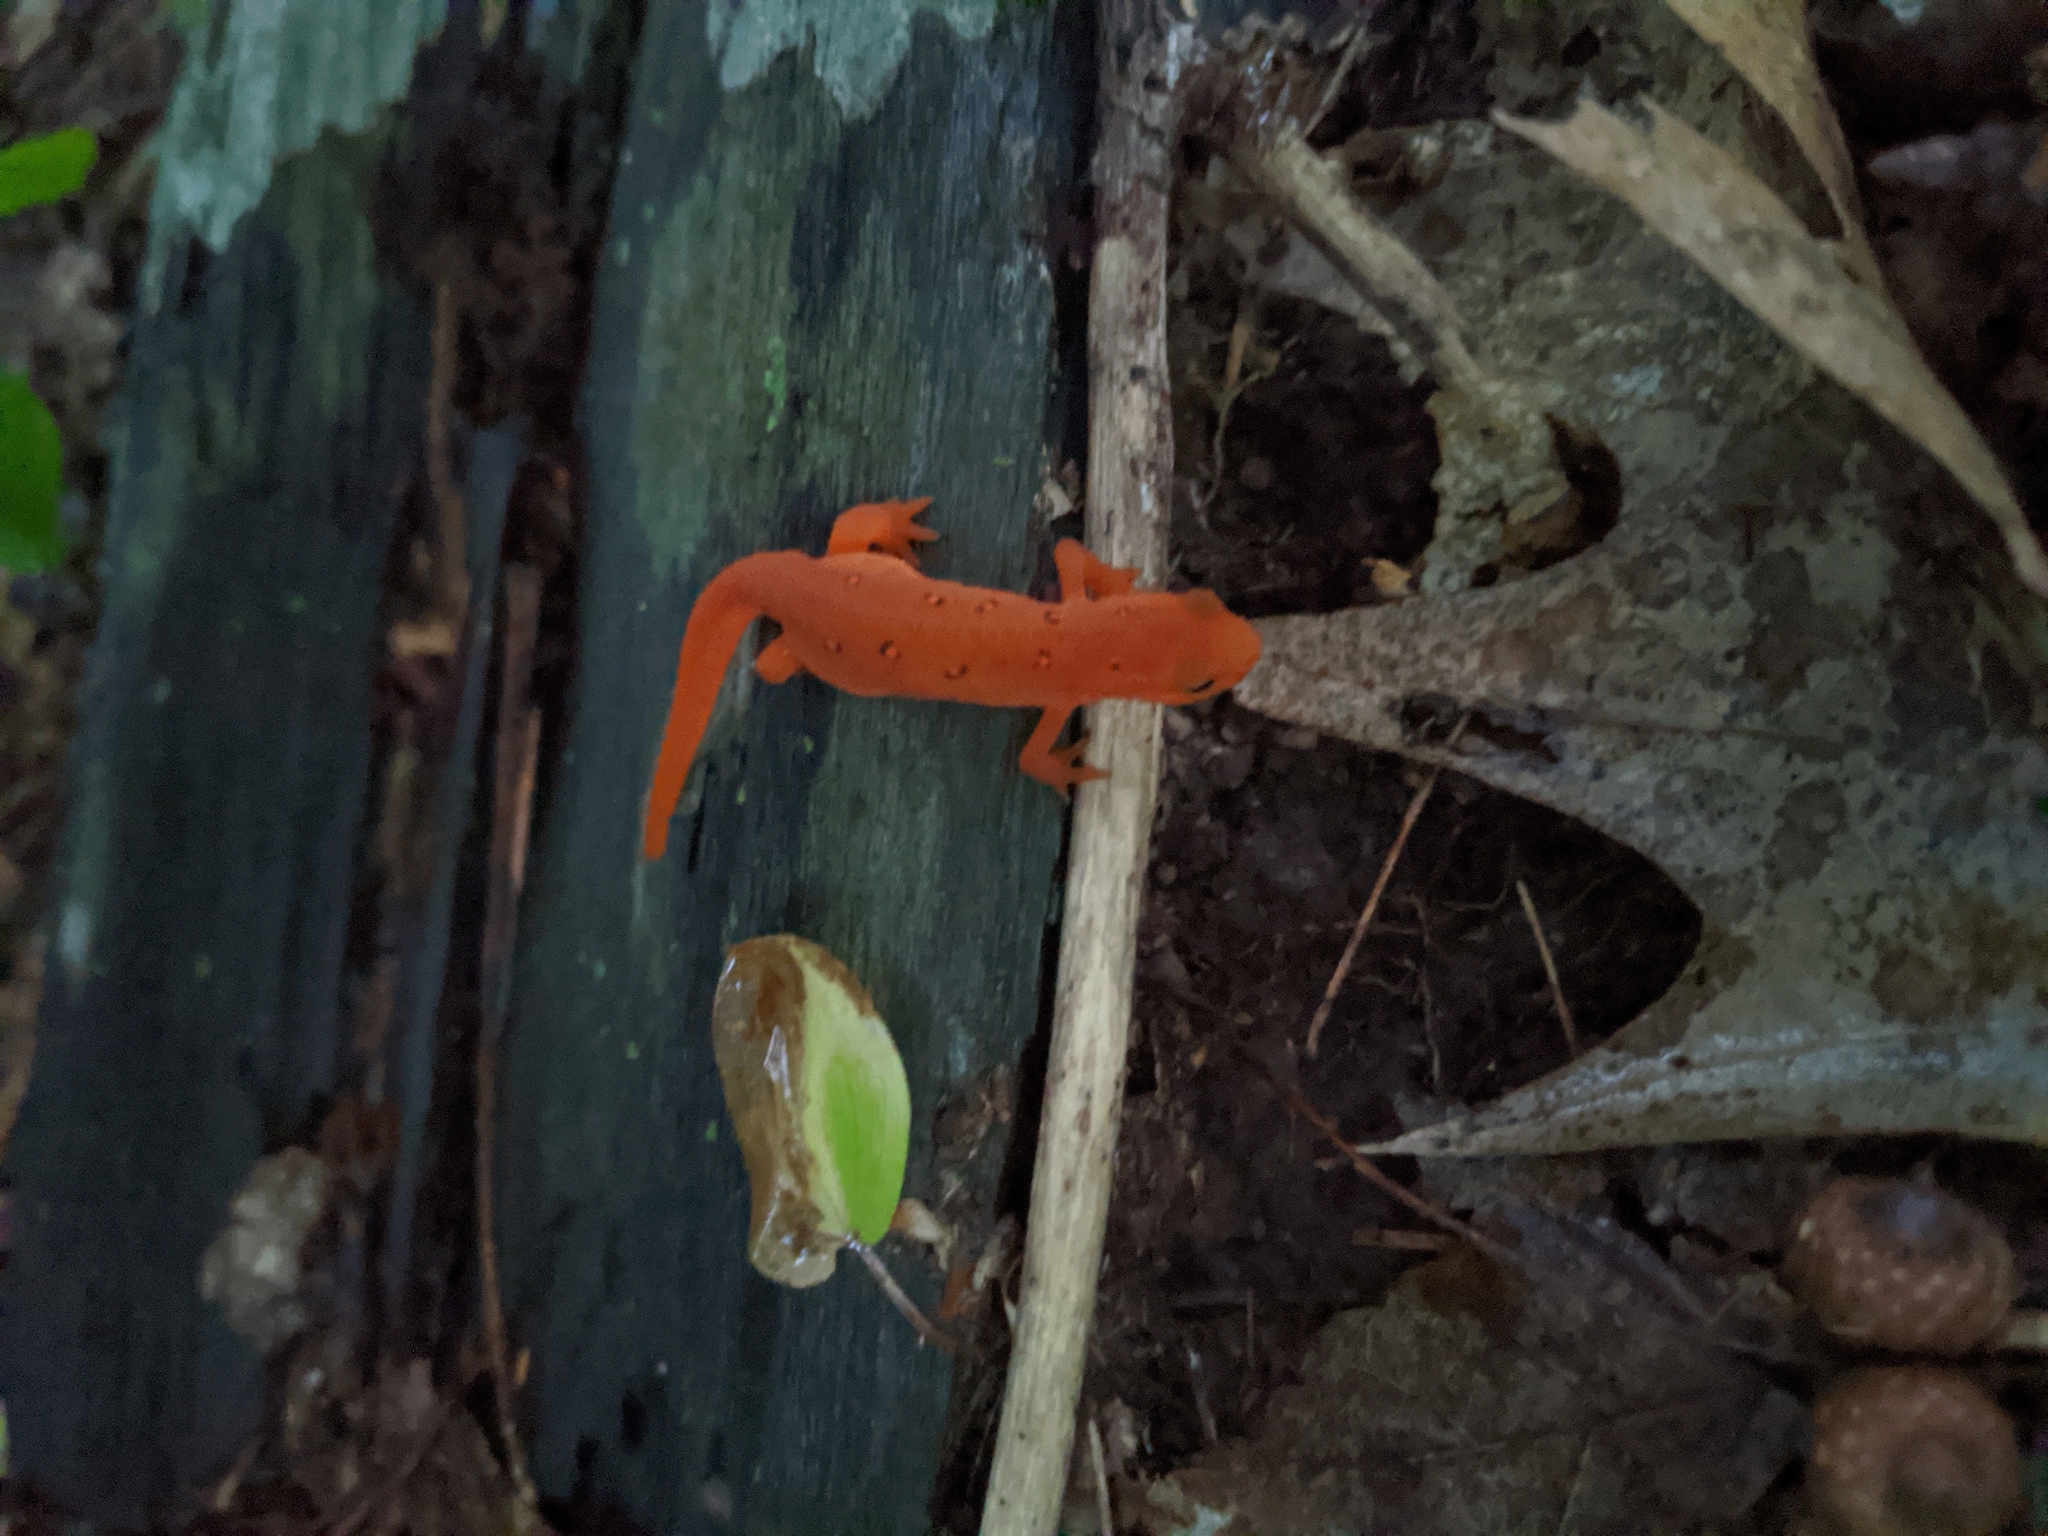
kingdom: Animalia
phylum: Chordata
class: Amphibia
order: Caudata
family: Salamandridae
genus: Notophthalmus
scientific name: Notophthalmus viridescens
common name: Eastern newt
